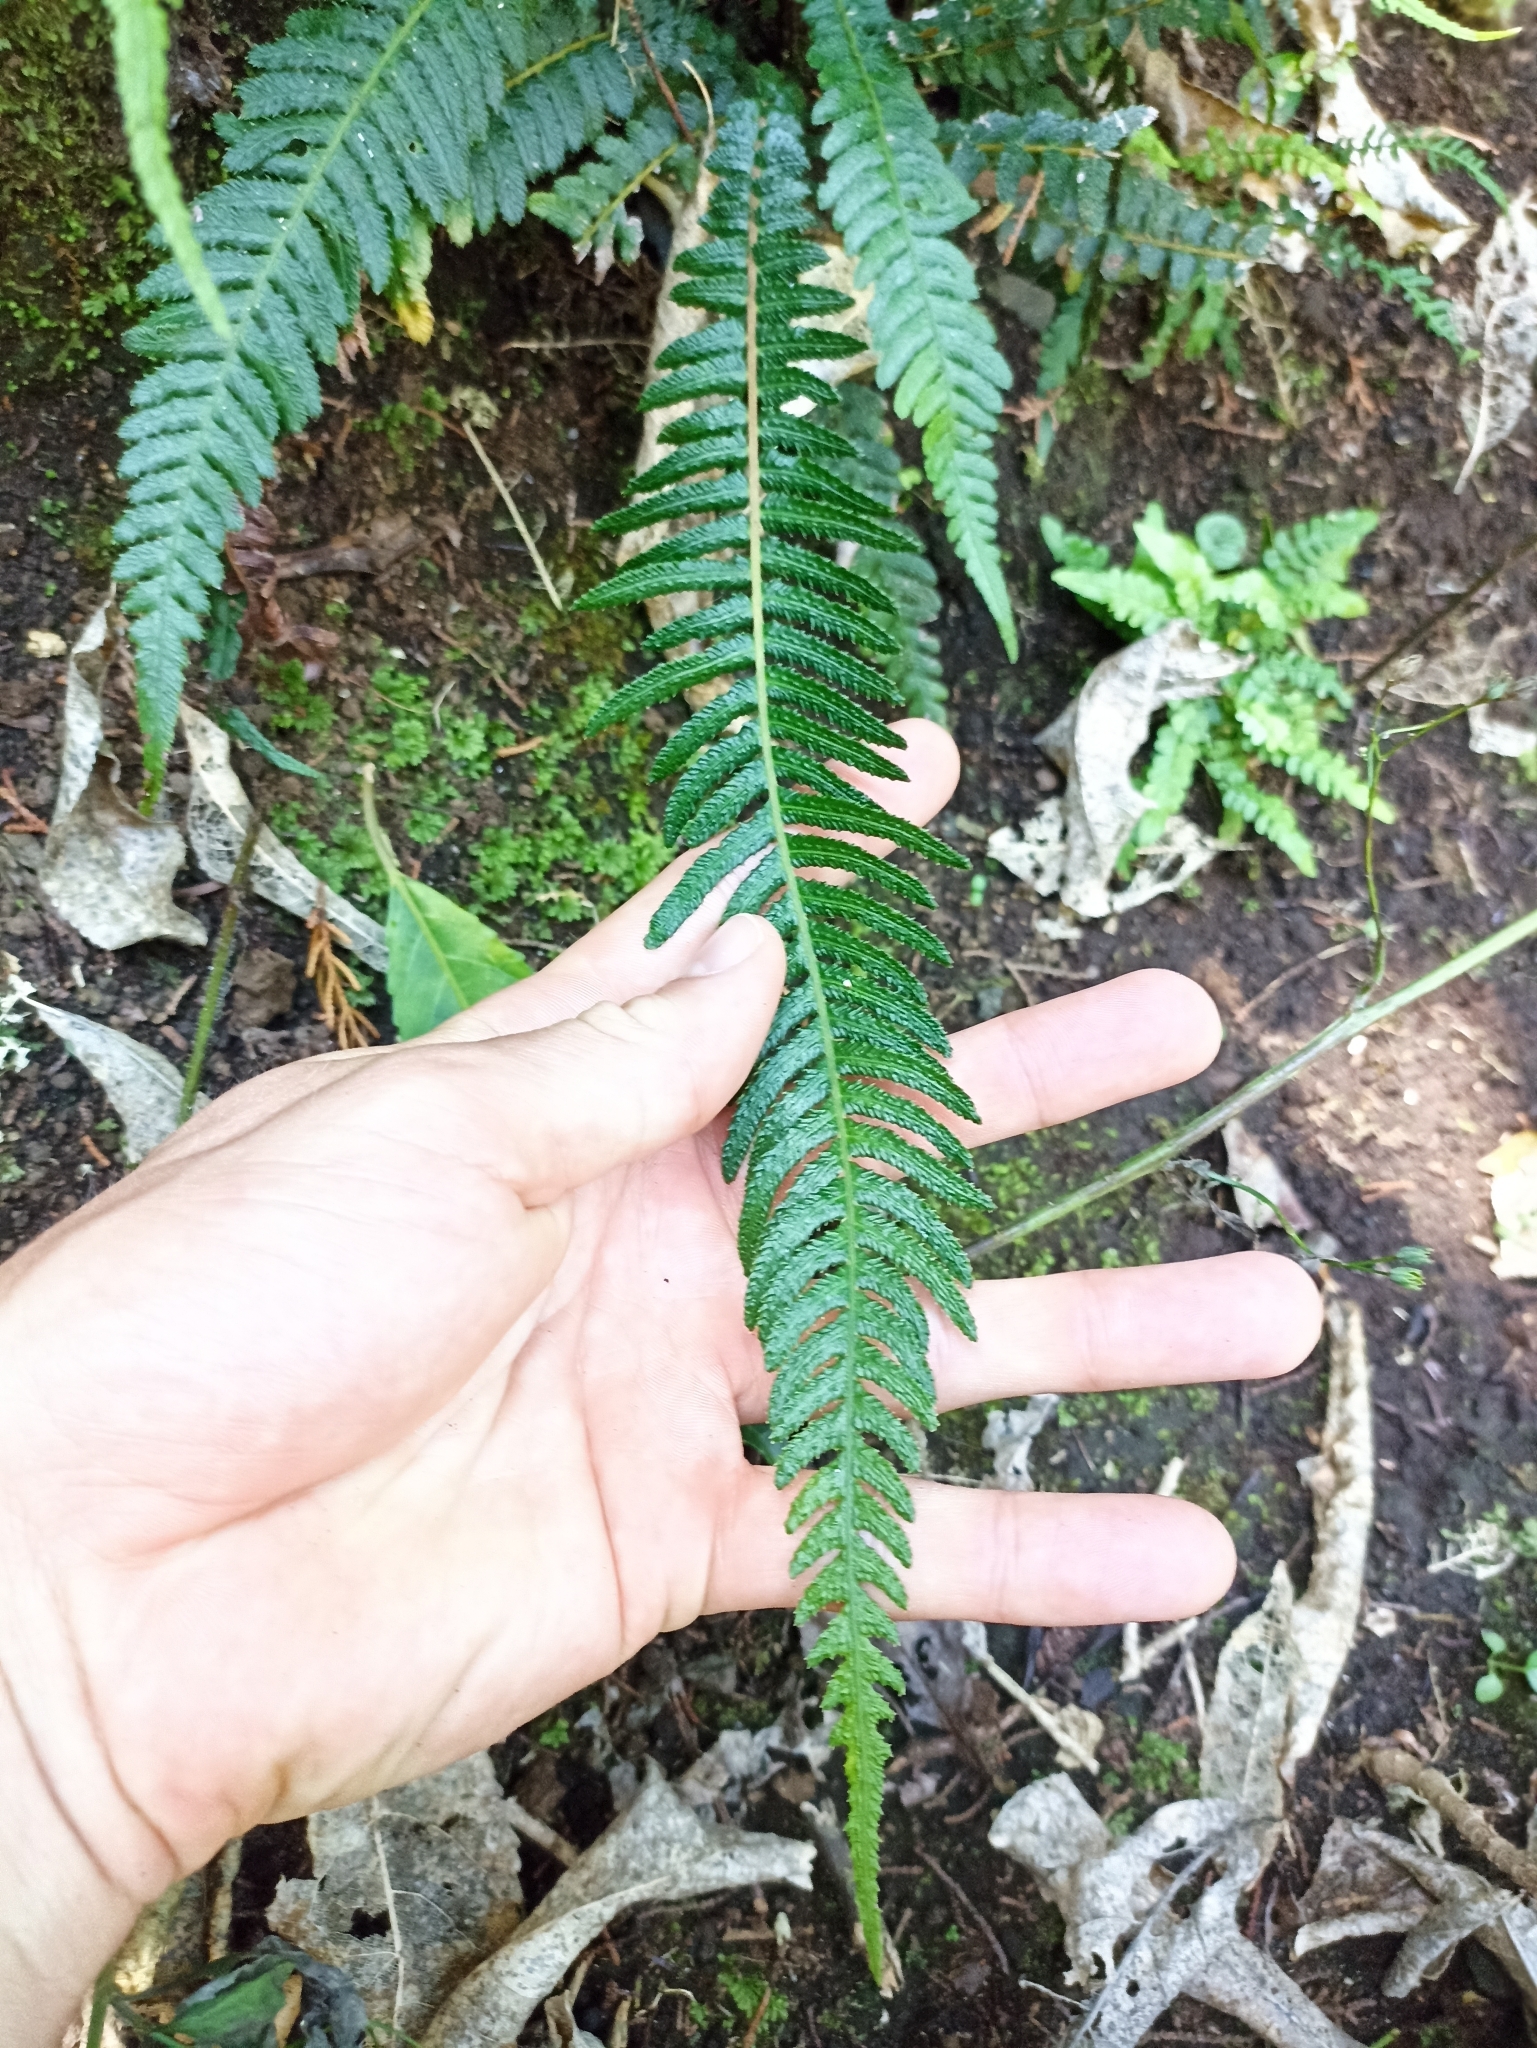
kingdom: Plantae
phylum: Tracheophyta
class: Polypodiopsida
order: Polypodiales
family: Blechnaceae
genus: Doodia
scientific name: Doodia australis
